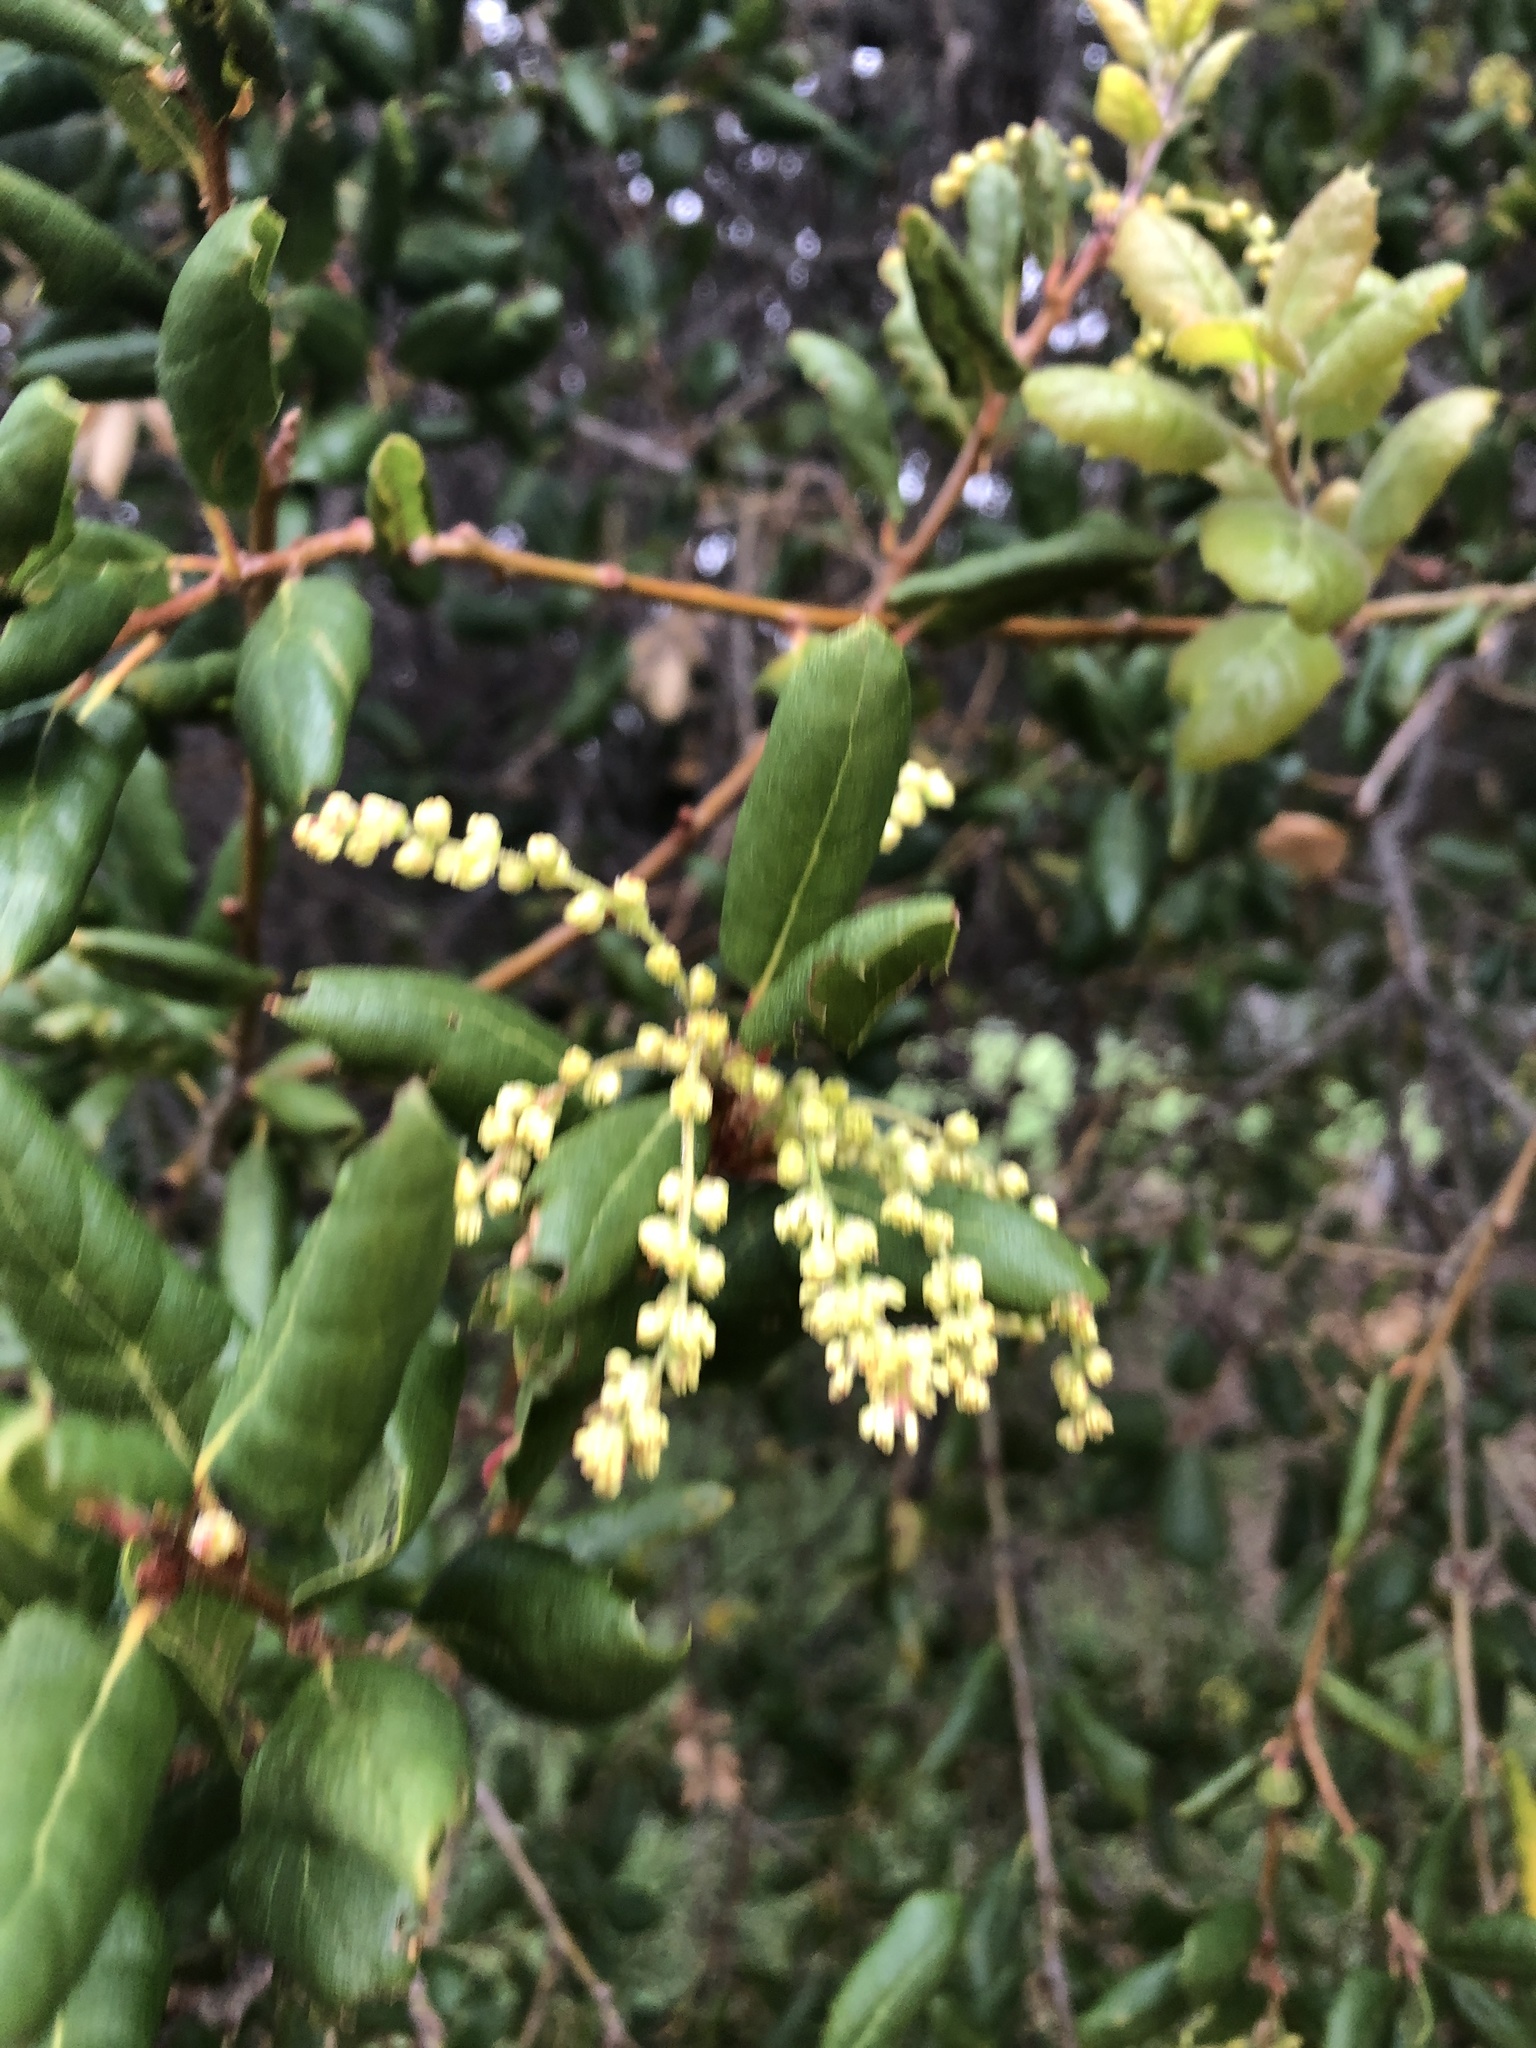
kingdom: Plantae
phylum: Tracheophyta
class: Magnoliopsida
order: Fagales
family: Fagaceae
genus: Quercus
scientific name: Quercus agrifolia
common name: California live oak
